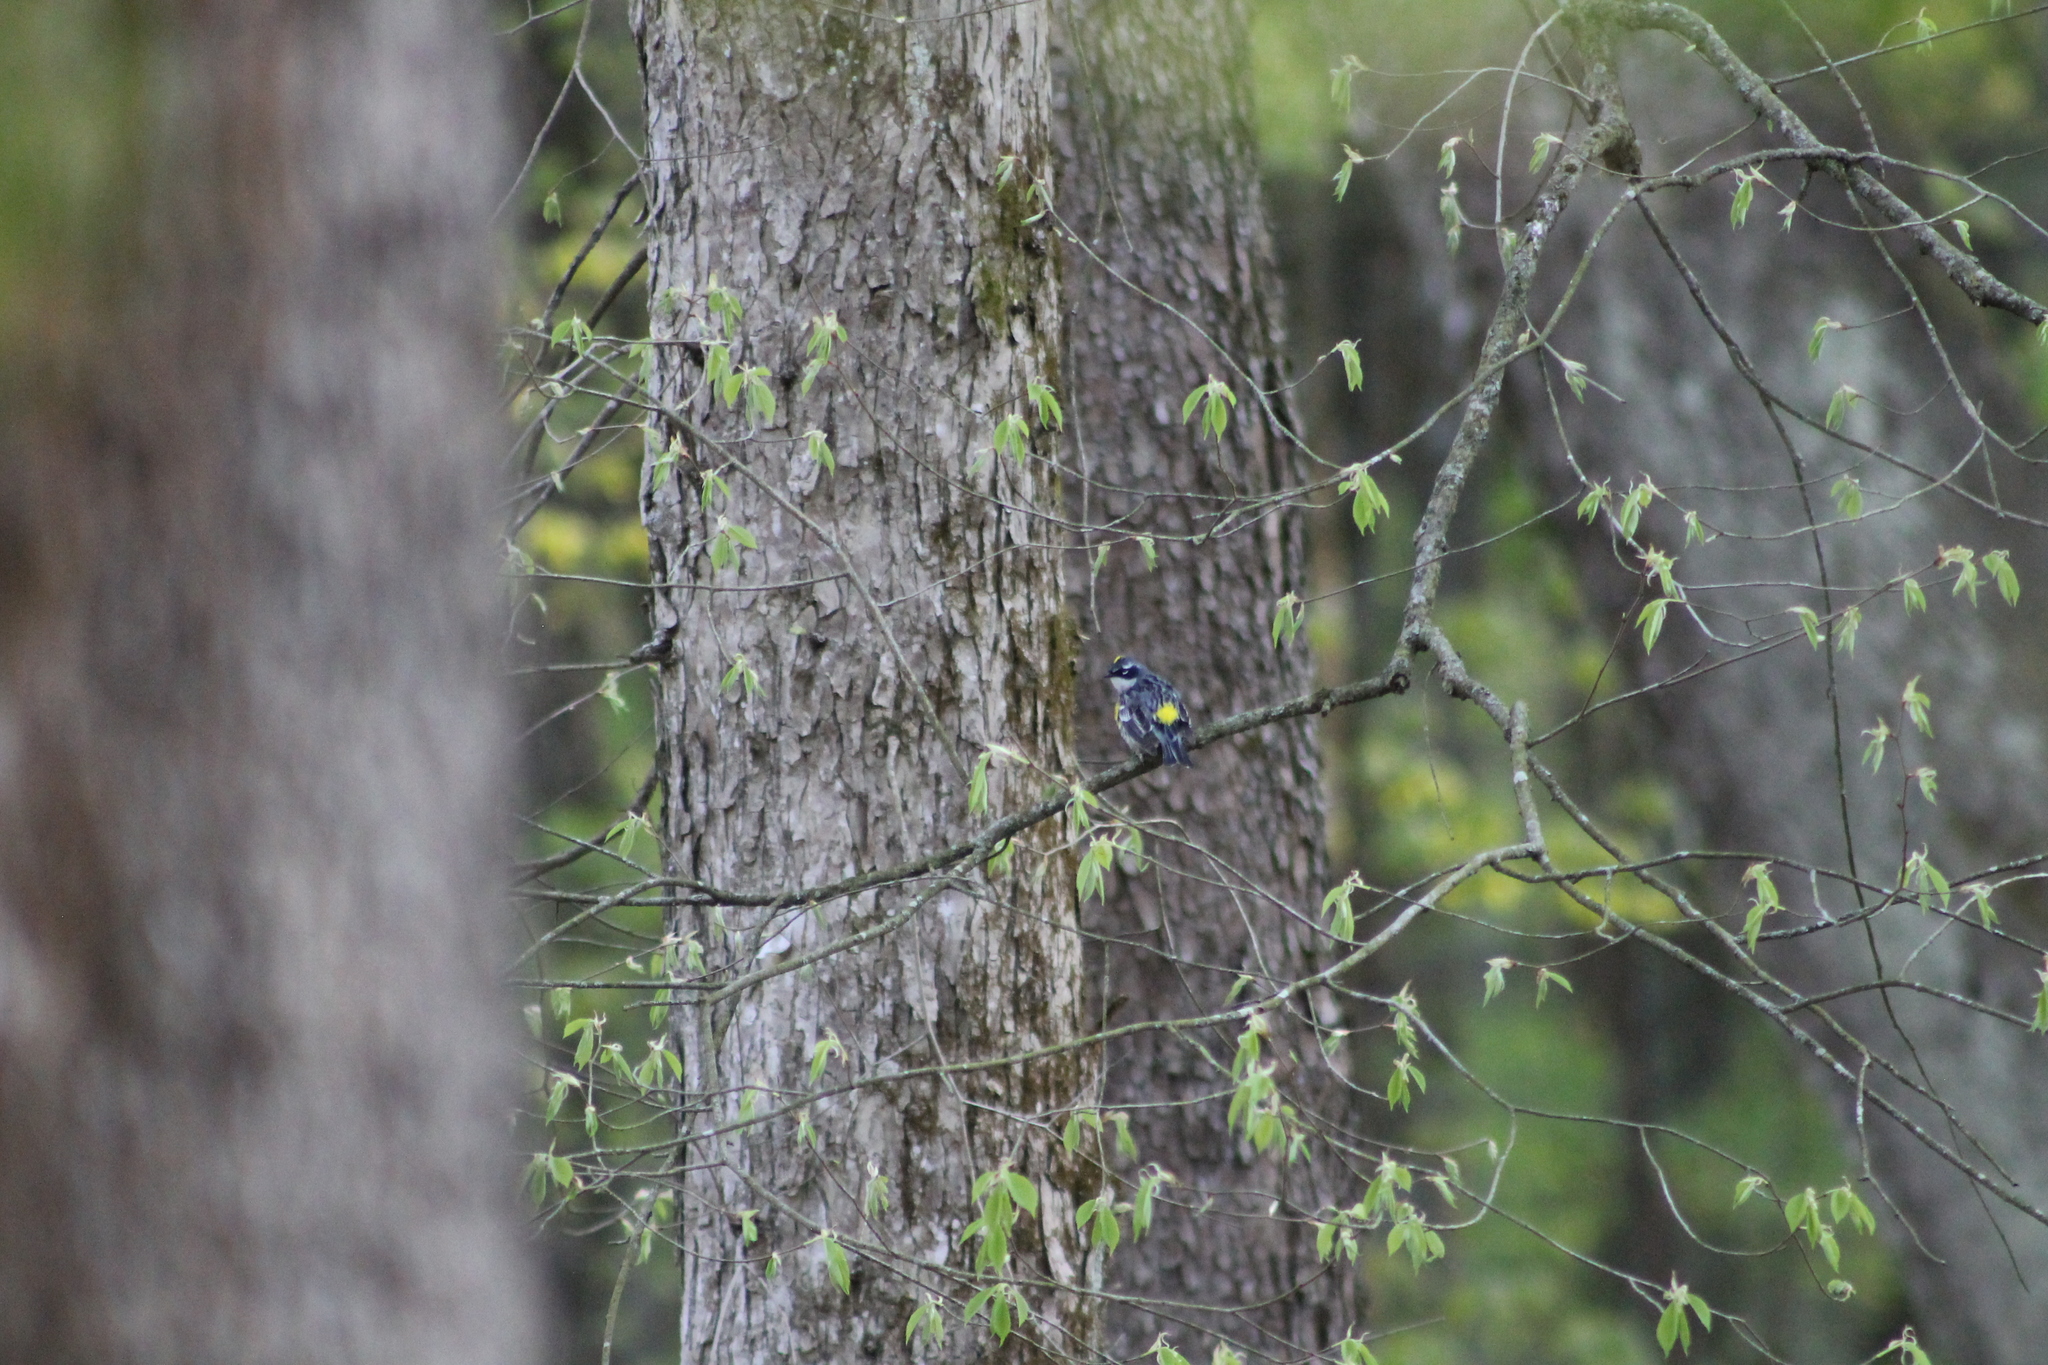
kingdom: Animalia
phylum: Chordata
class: Aves
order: Passeriformes
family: Parulidae
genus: Setophaga
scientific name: Setophaga coronata
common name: Myrtle warbler
